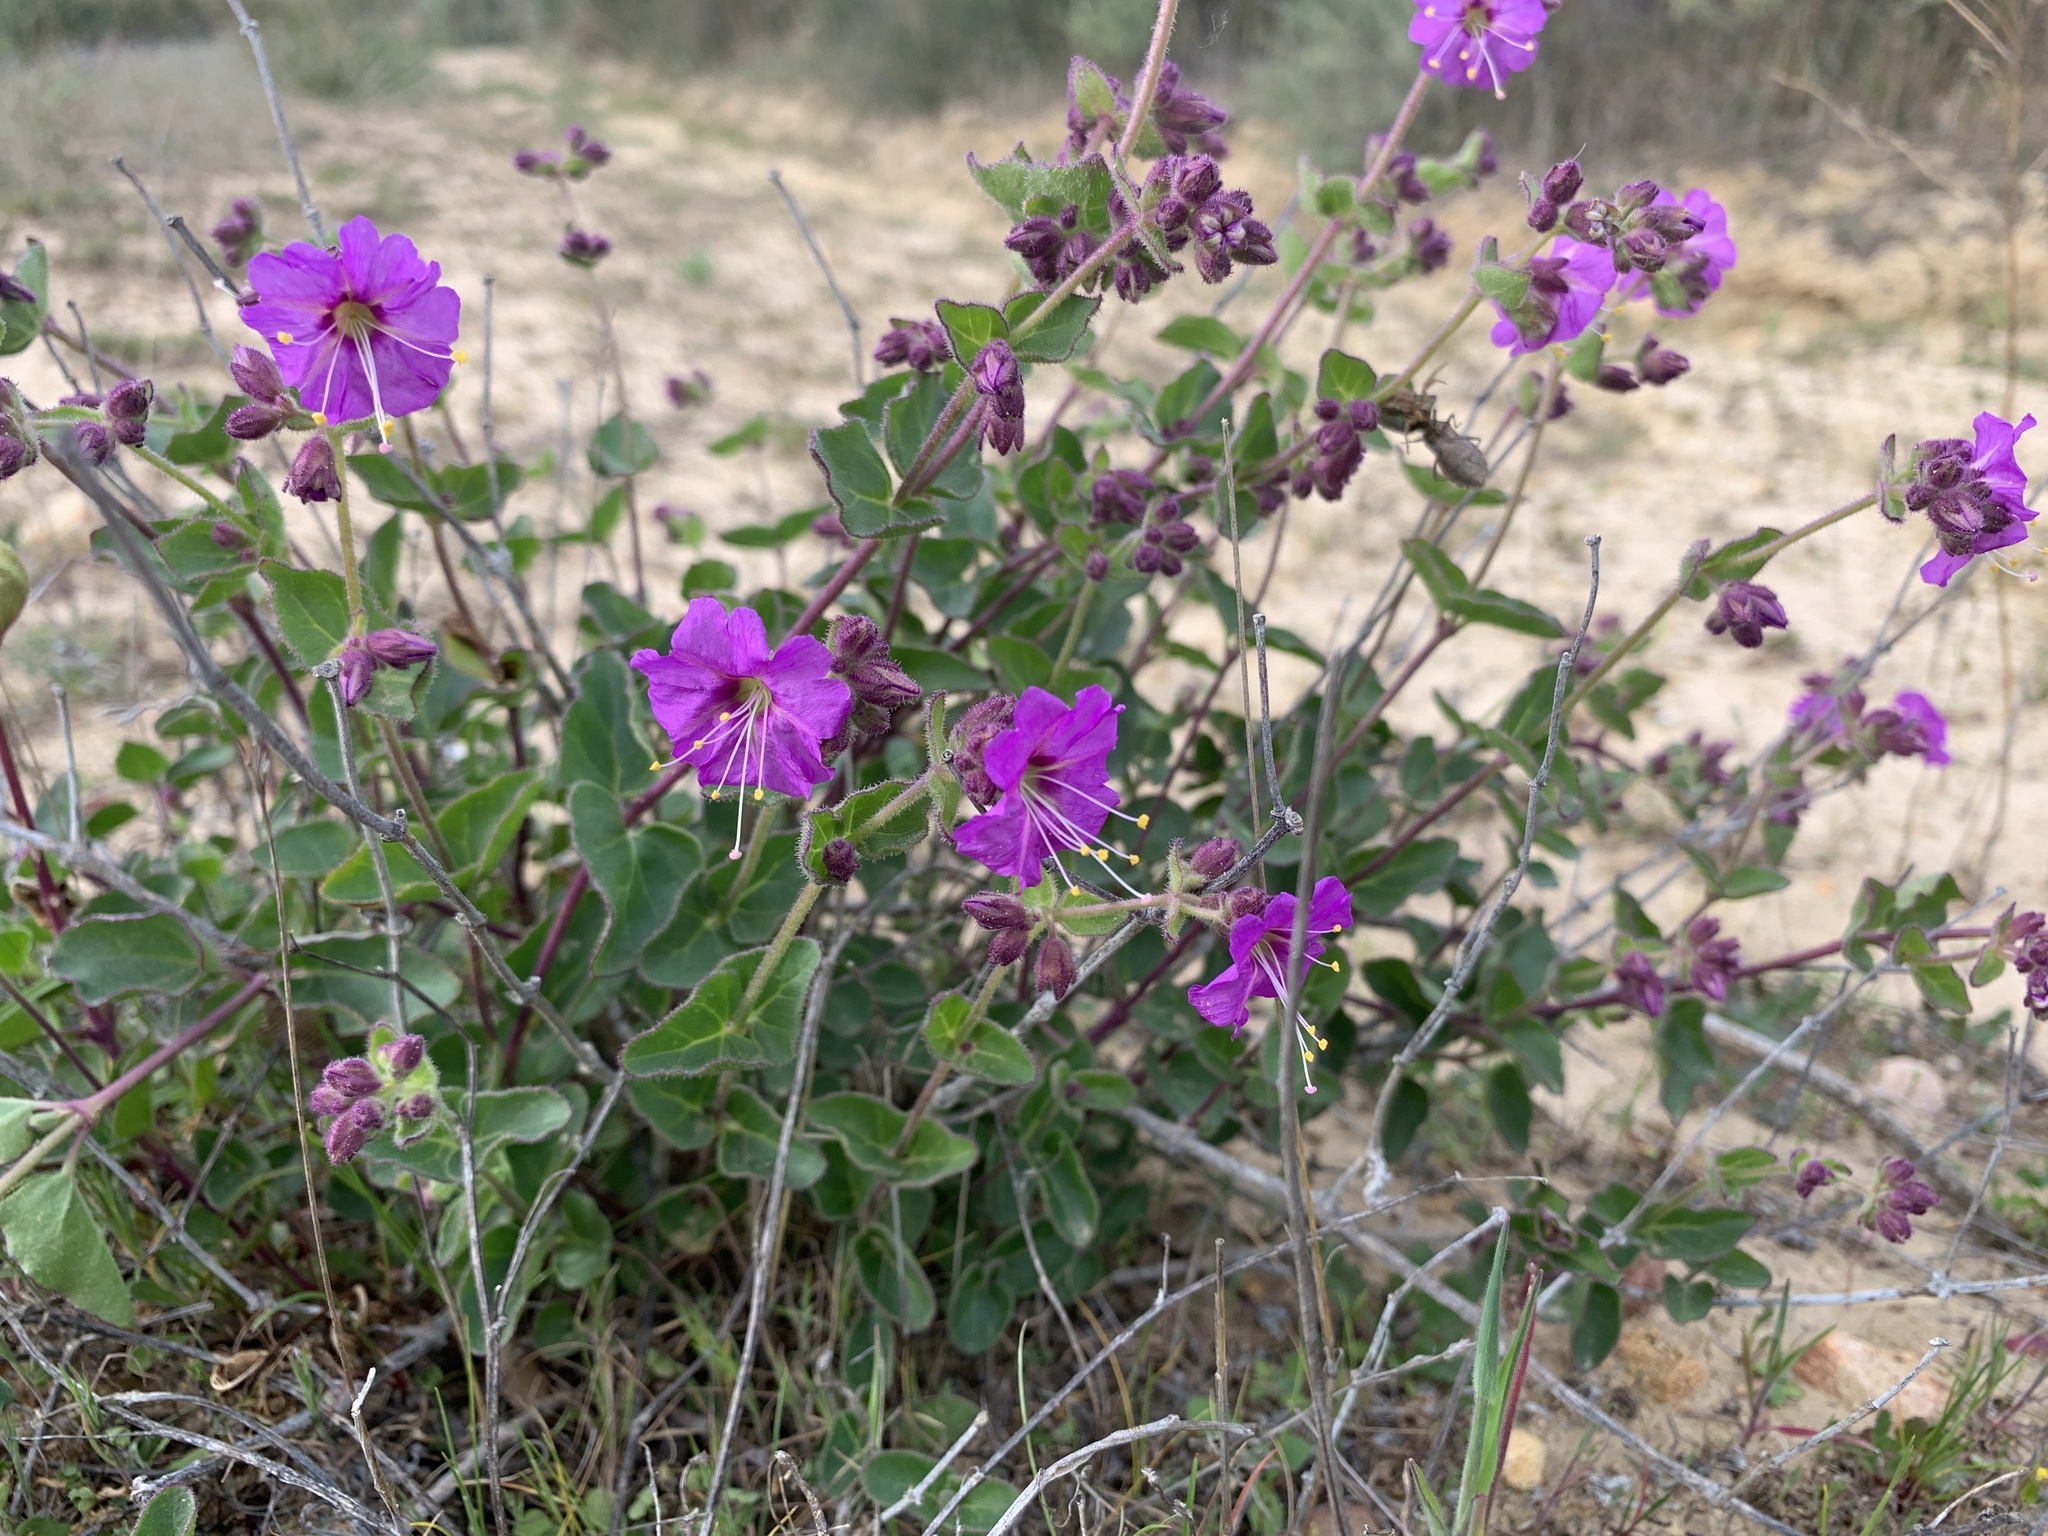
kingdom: Plantae
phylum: Tracheophyta
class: Magnoliopsida
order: Caryophyllales
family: Nyctaginaceae
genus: Mirabilis
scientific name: Mirabilis laevis
